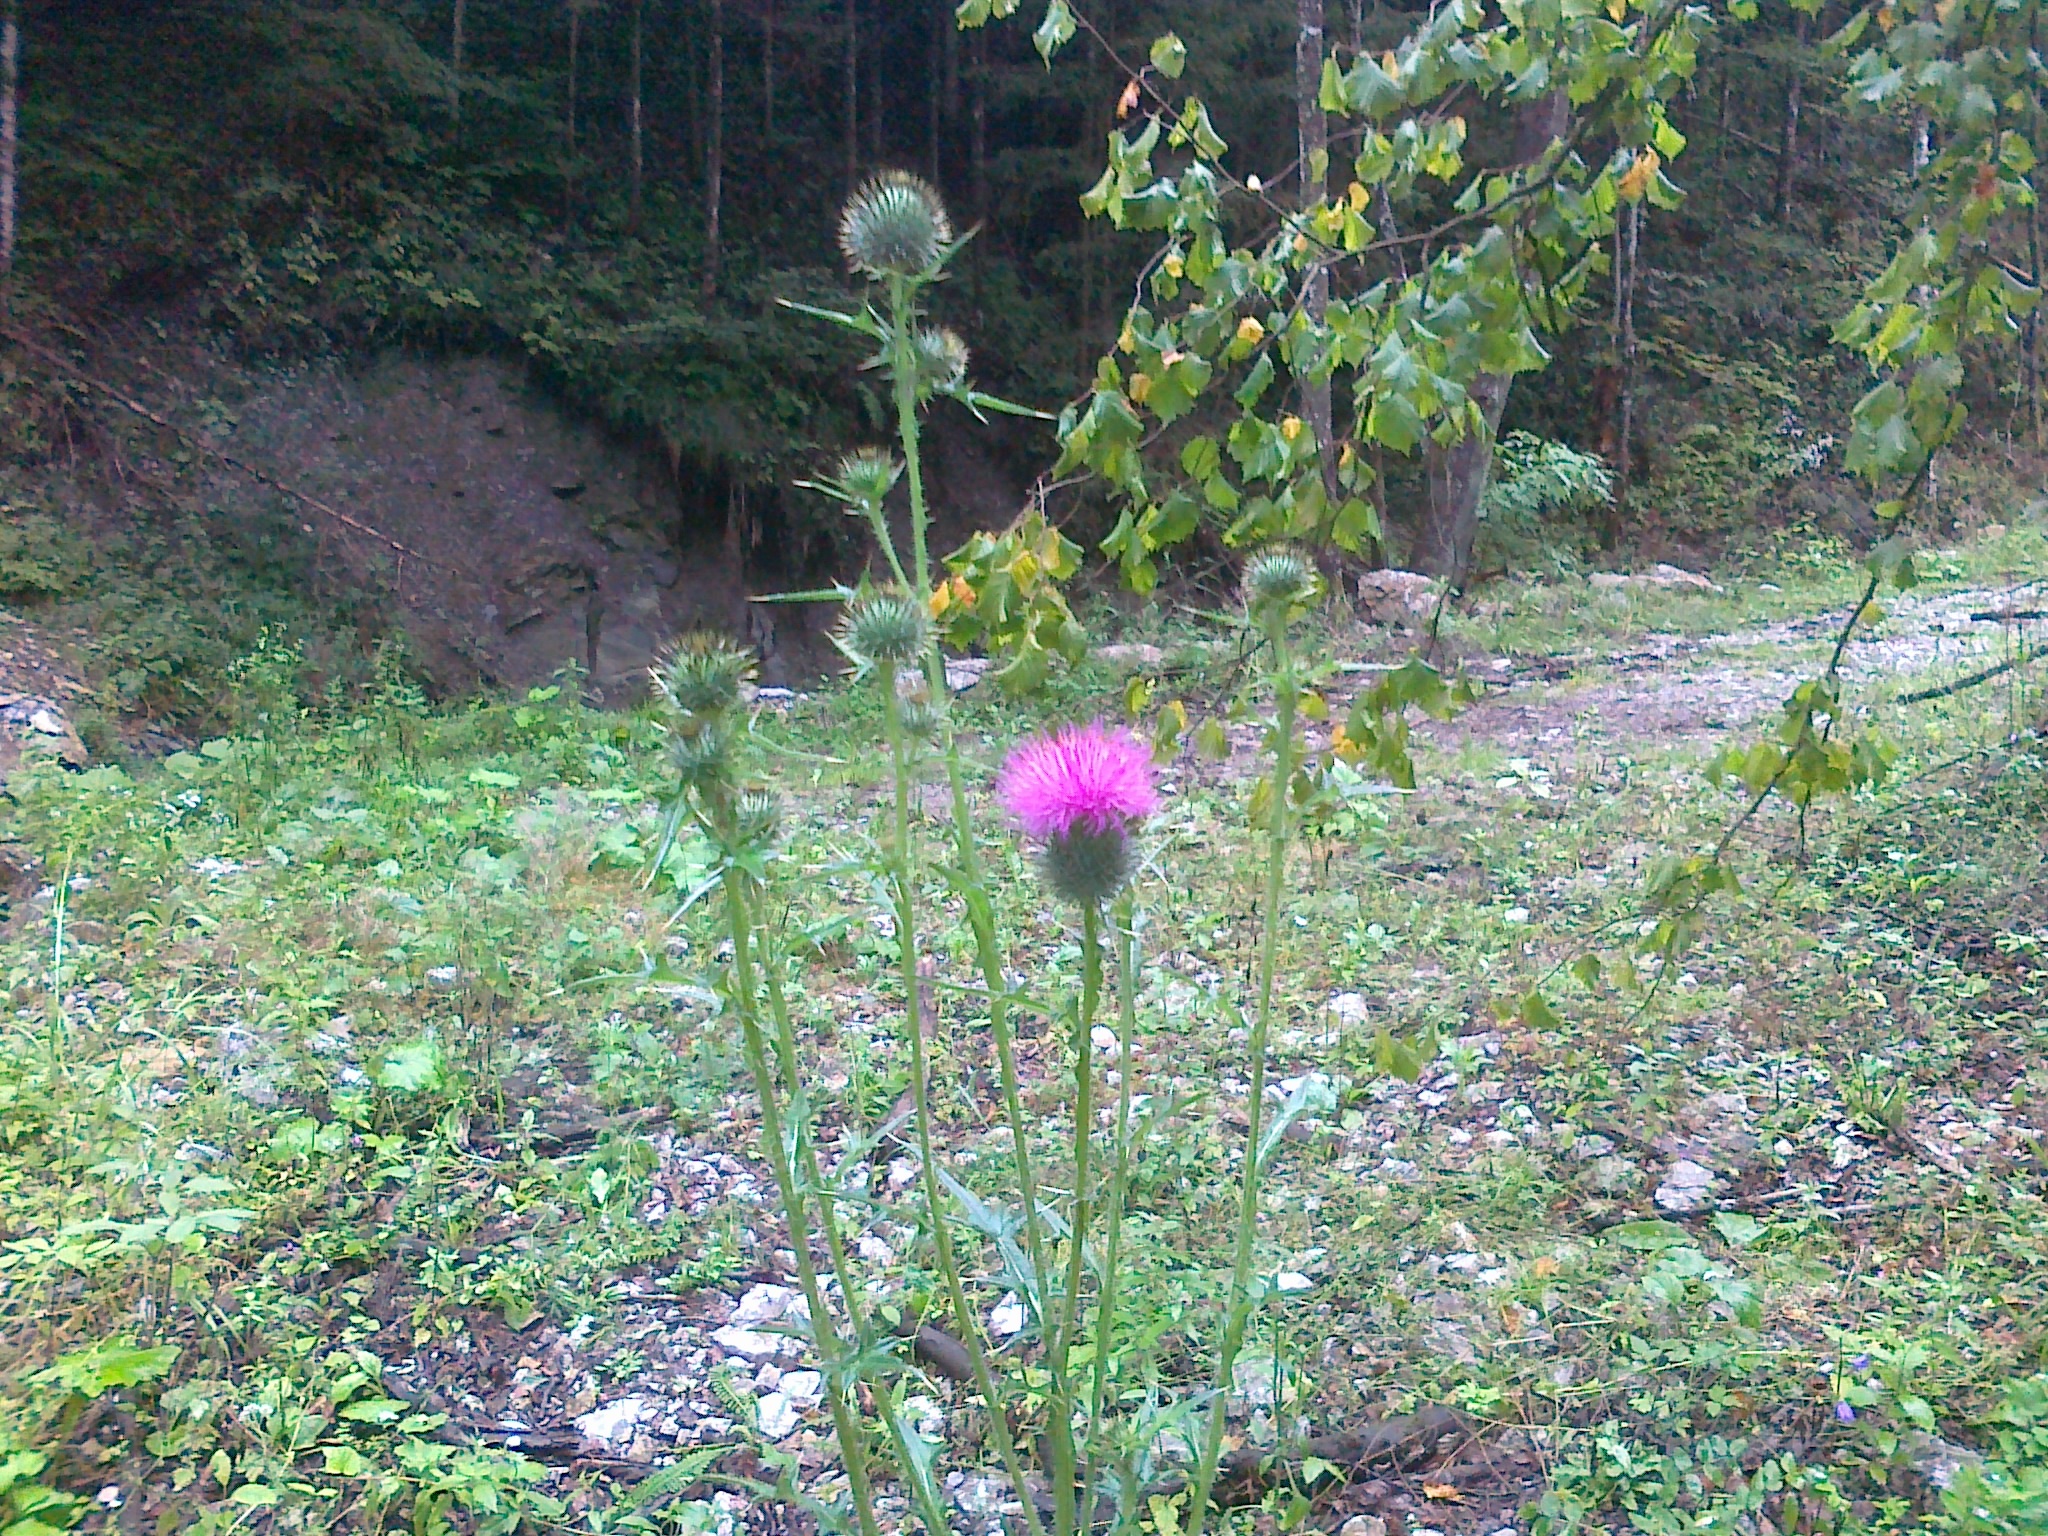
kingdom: Plantae
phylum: Tracheophyta
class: Magnoliopsida
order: Asterales
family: Asteraceae
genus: Cirsium
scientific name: Cirsium vulgare
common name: Bull thistle
